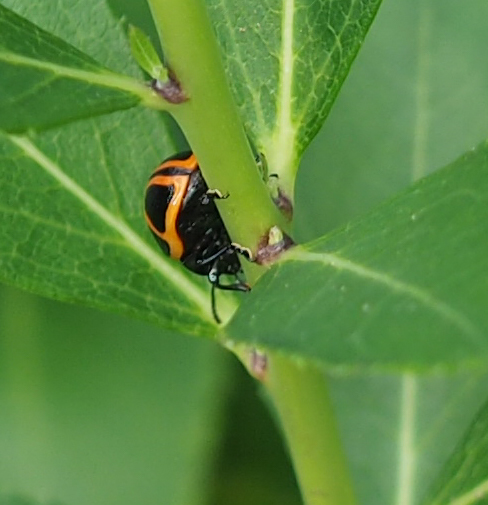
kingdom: Animalia
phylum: Arthropoda
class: Insecta
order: Coleoptera
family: Chrysomelidae
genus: Labidomera
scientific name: Labidomera clivicollis
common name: Swamp milkweed leaf beetle
